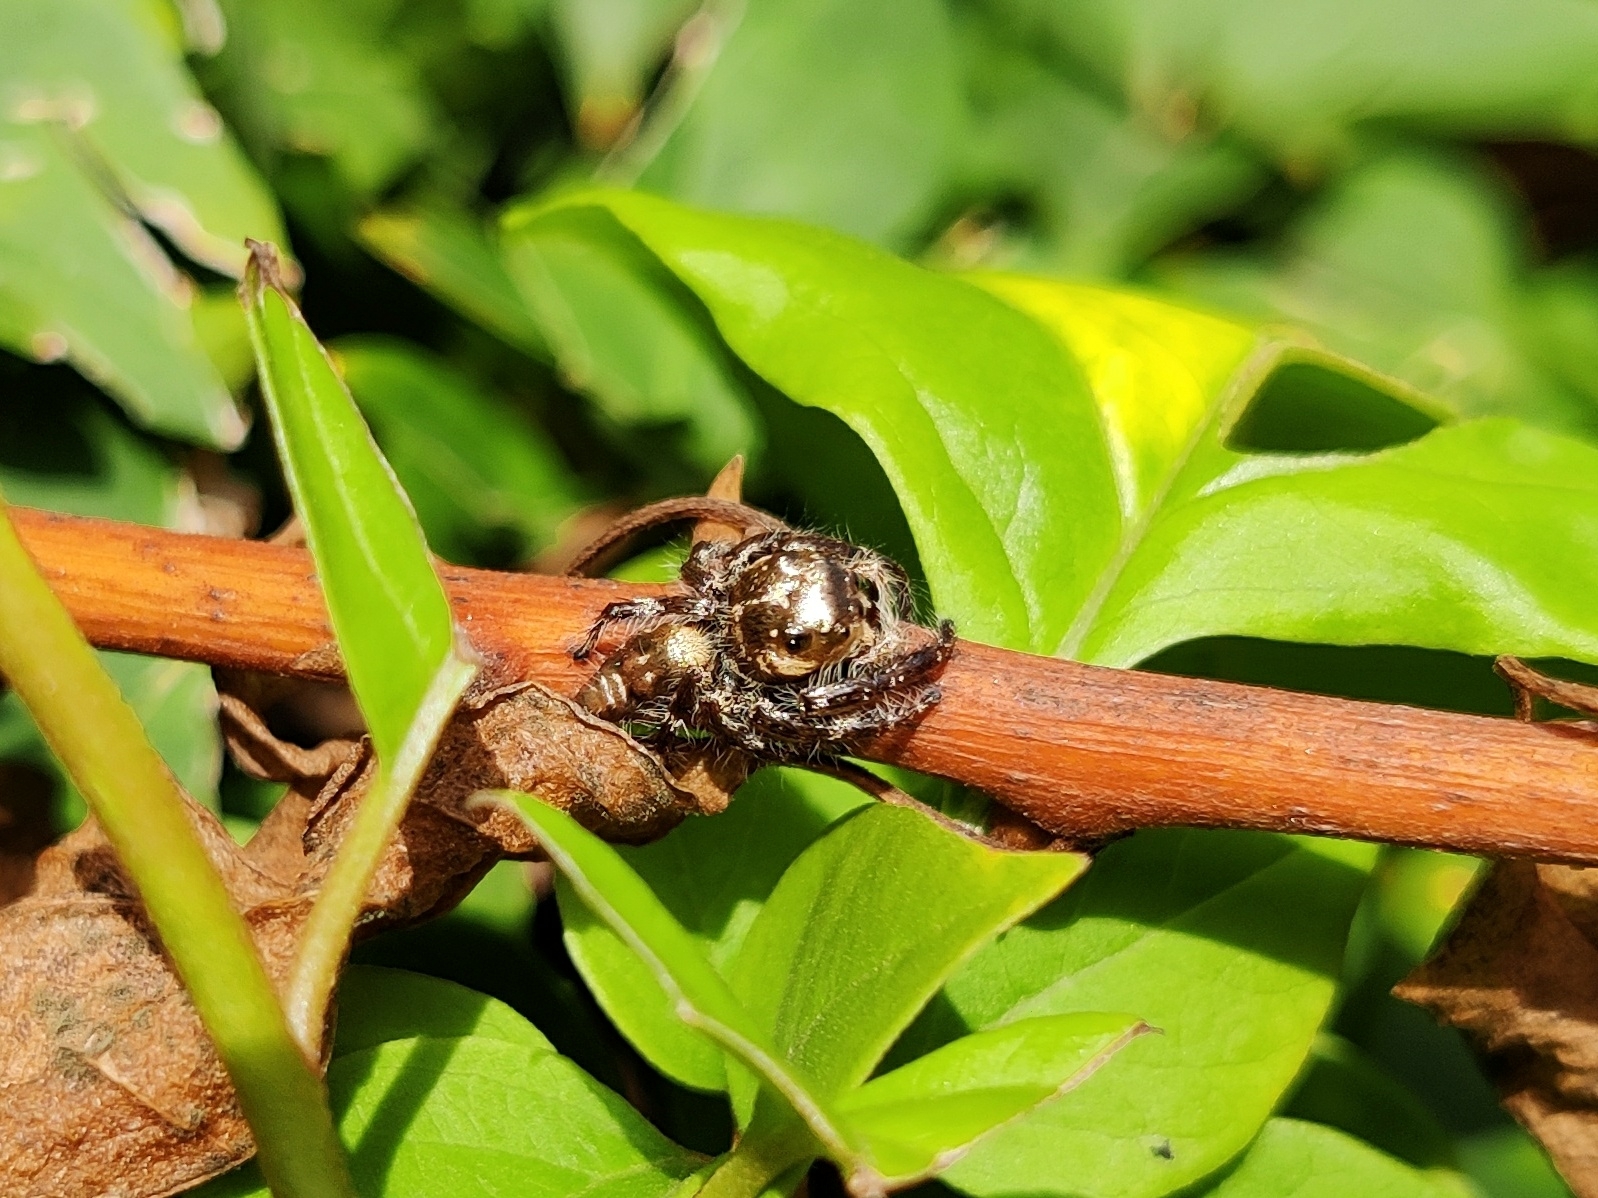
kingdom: Animalia
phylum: Arthropoda
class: Arachnida
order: Araneae
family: Salticidae
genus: Hyllus
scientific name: Hyllus semicupreus
